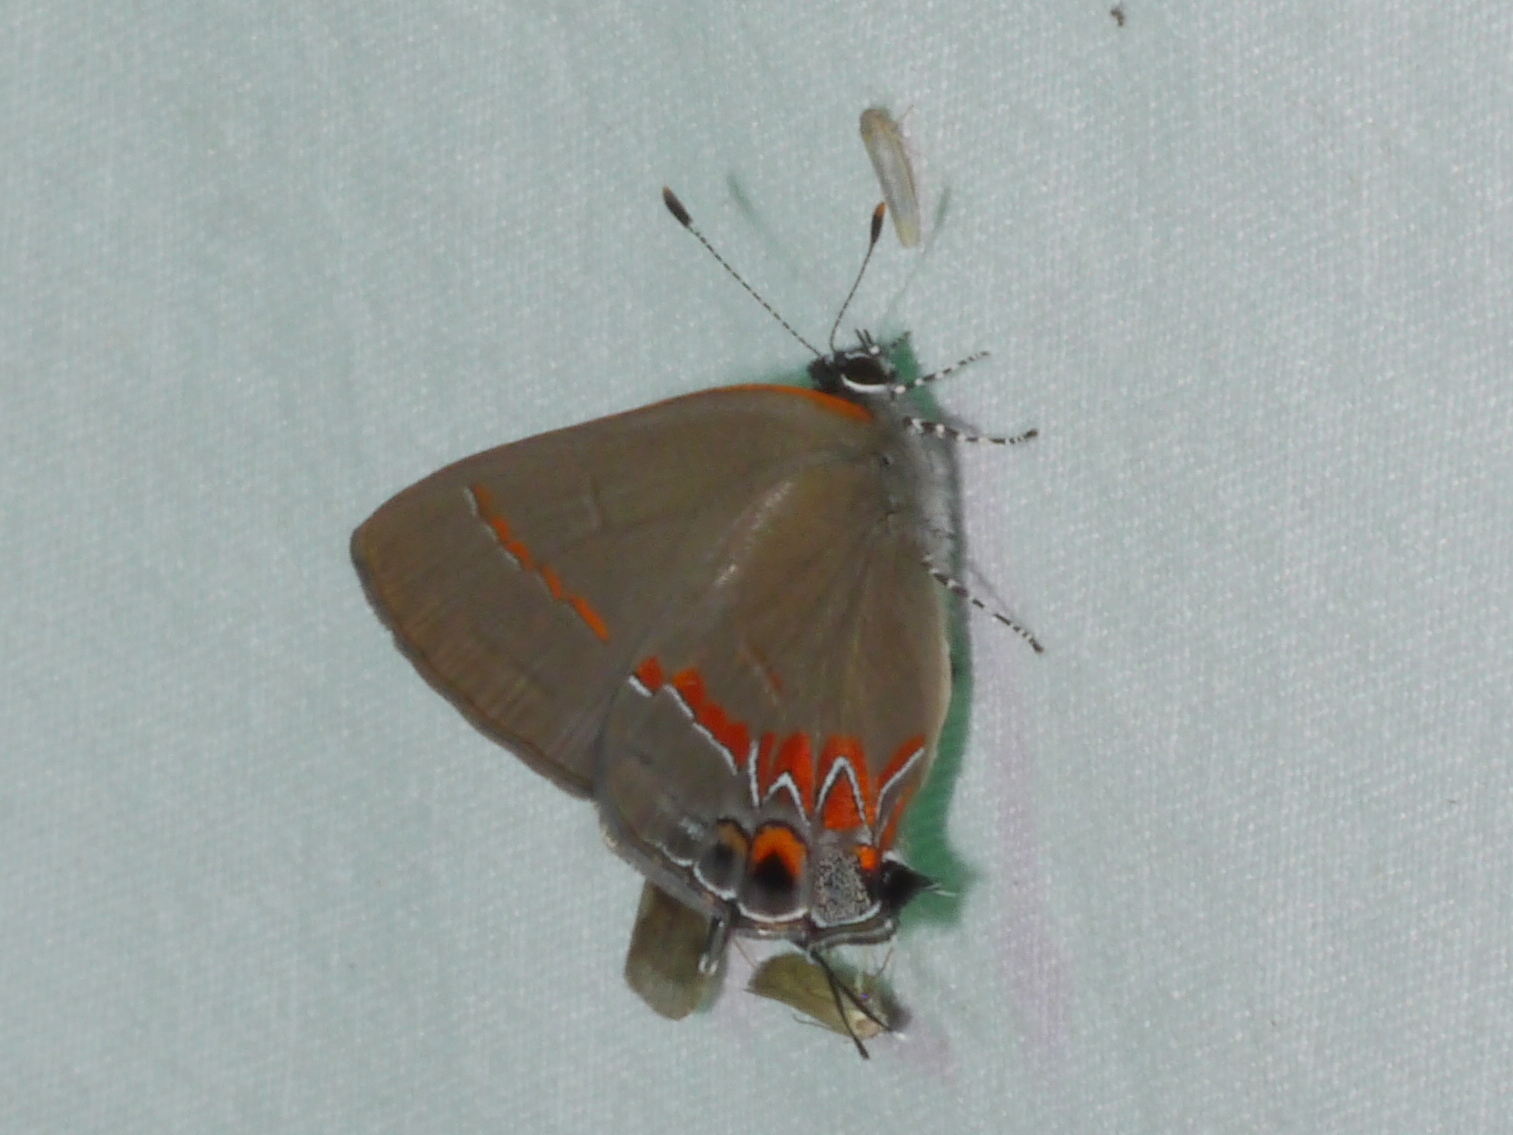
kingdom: Animalia
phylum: Arthropoda
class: Insecta
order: Lepidoptera
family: Lycaenidae
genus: Calycopis
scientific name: Calycopis isobeon
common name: Dusky-blue groundstreak
